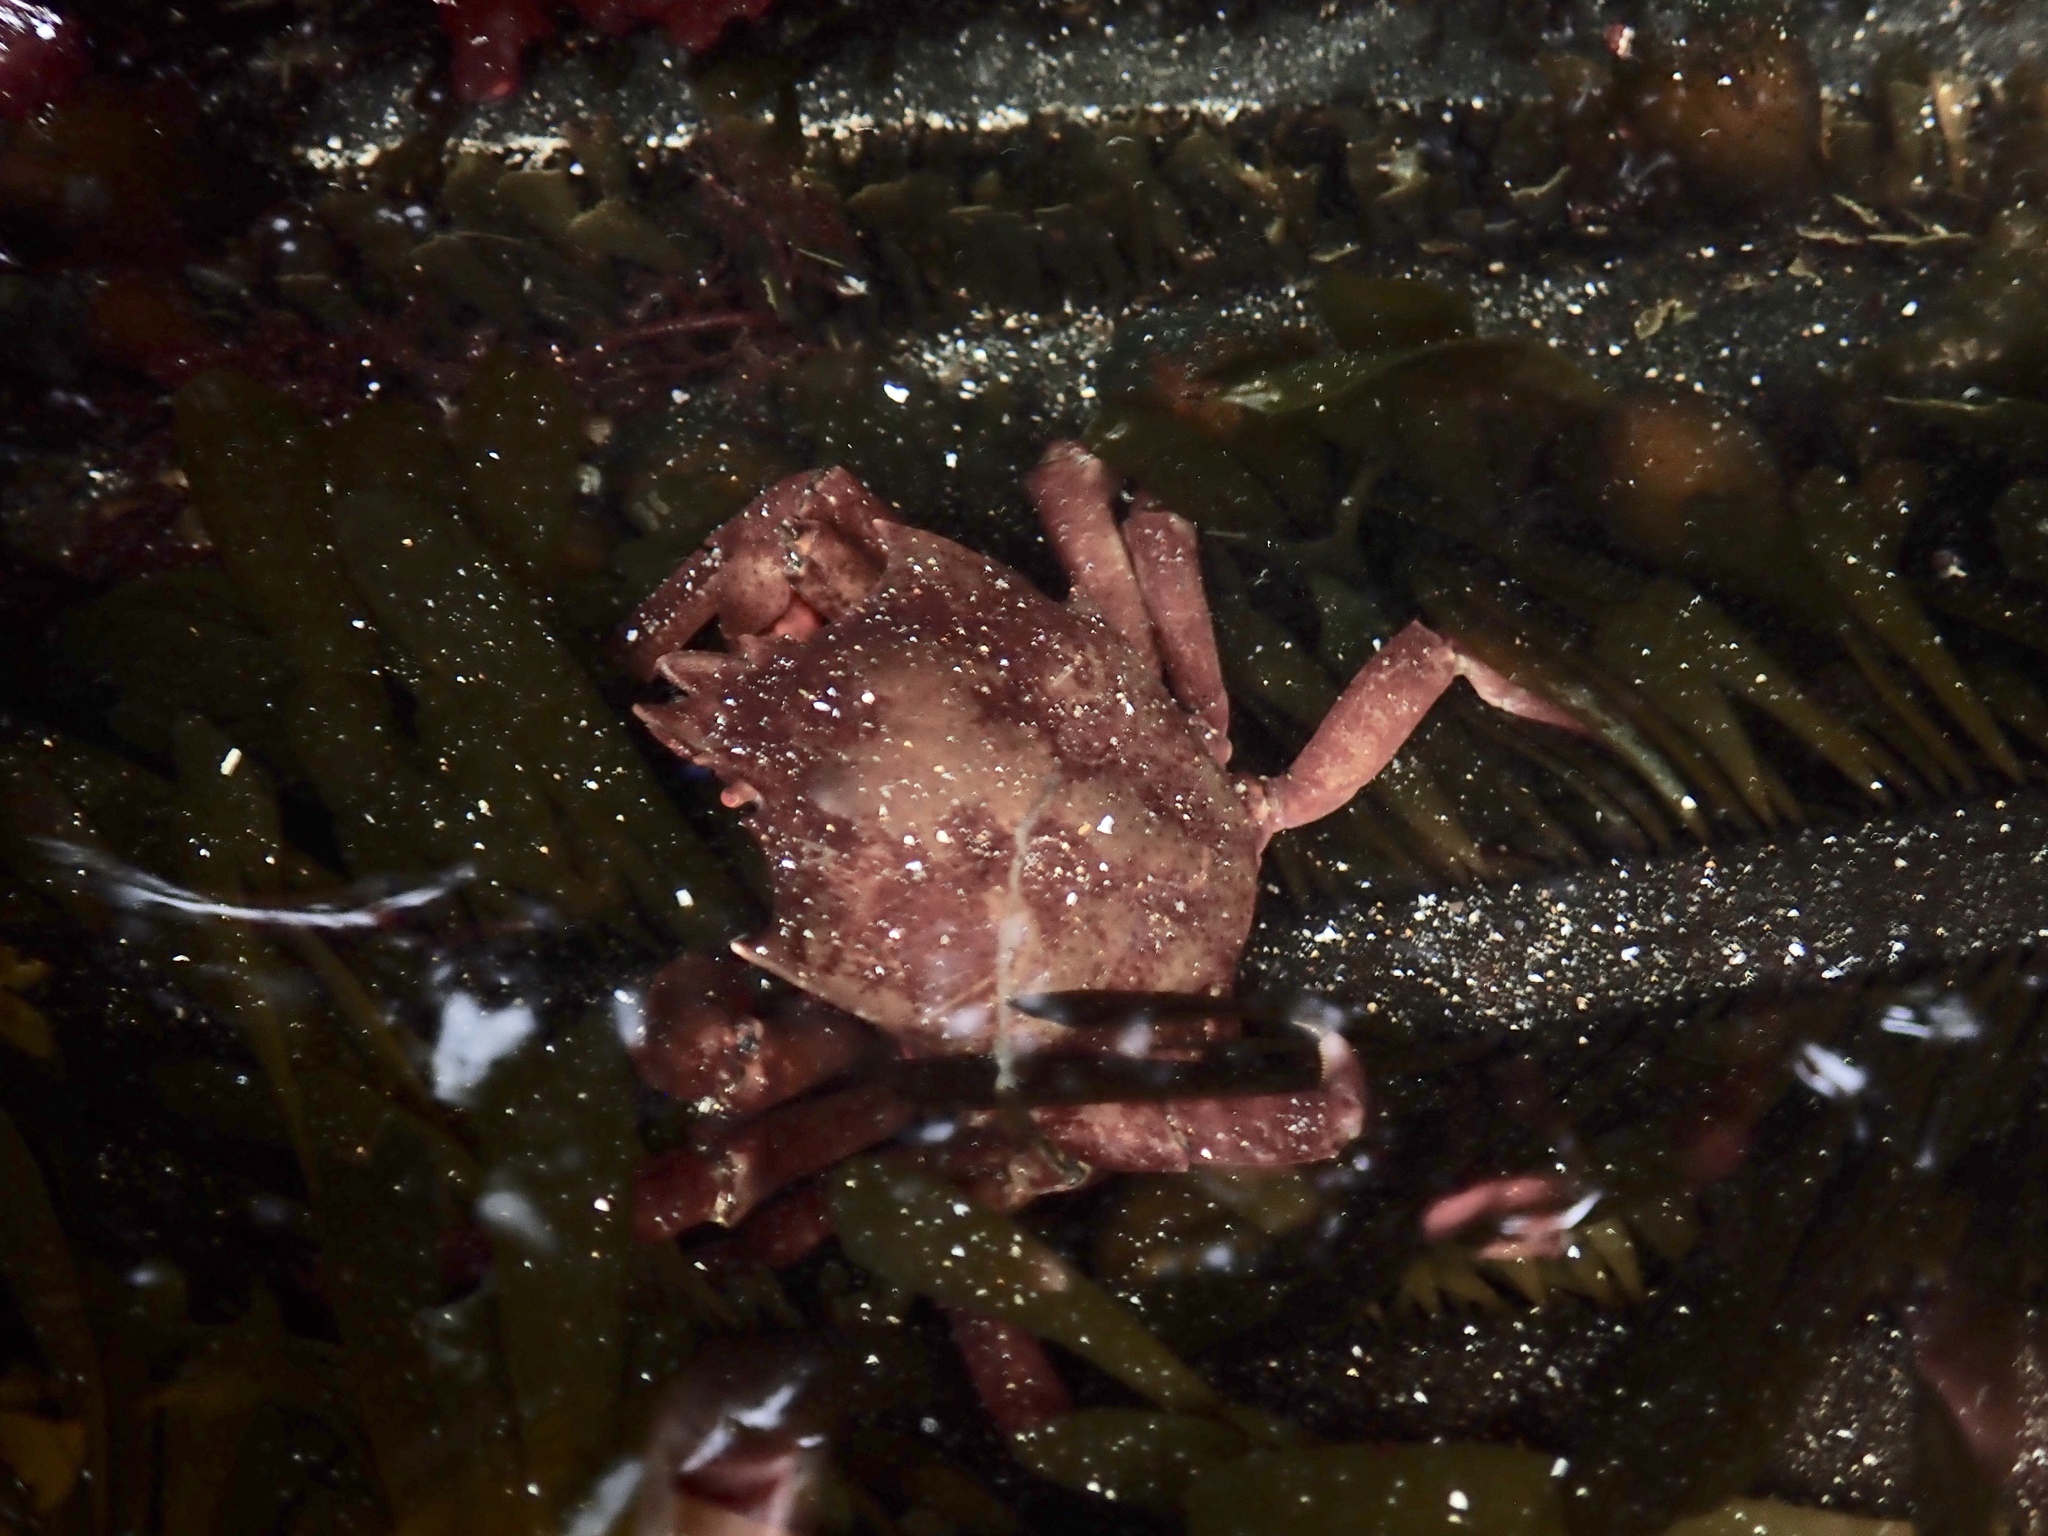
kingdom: Animalia
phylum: Arthropoda
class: Malacostraca
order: Decapoda
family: Epialtidae
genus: Pugettia
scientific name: Pugettia producta
